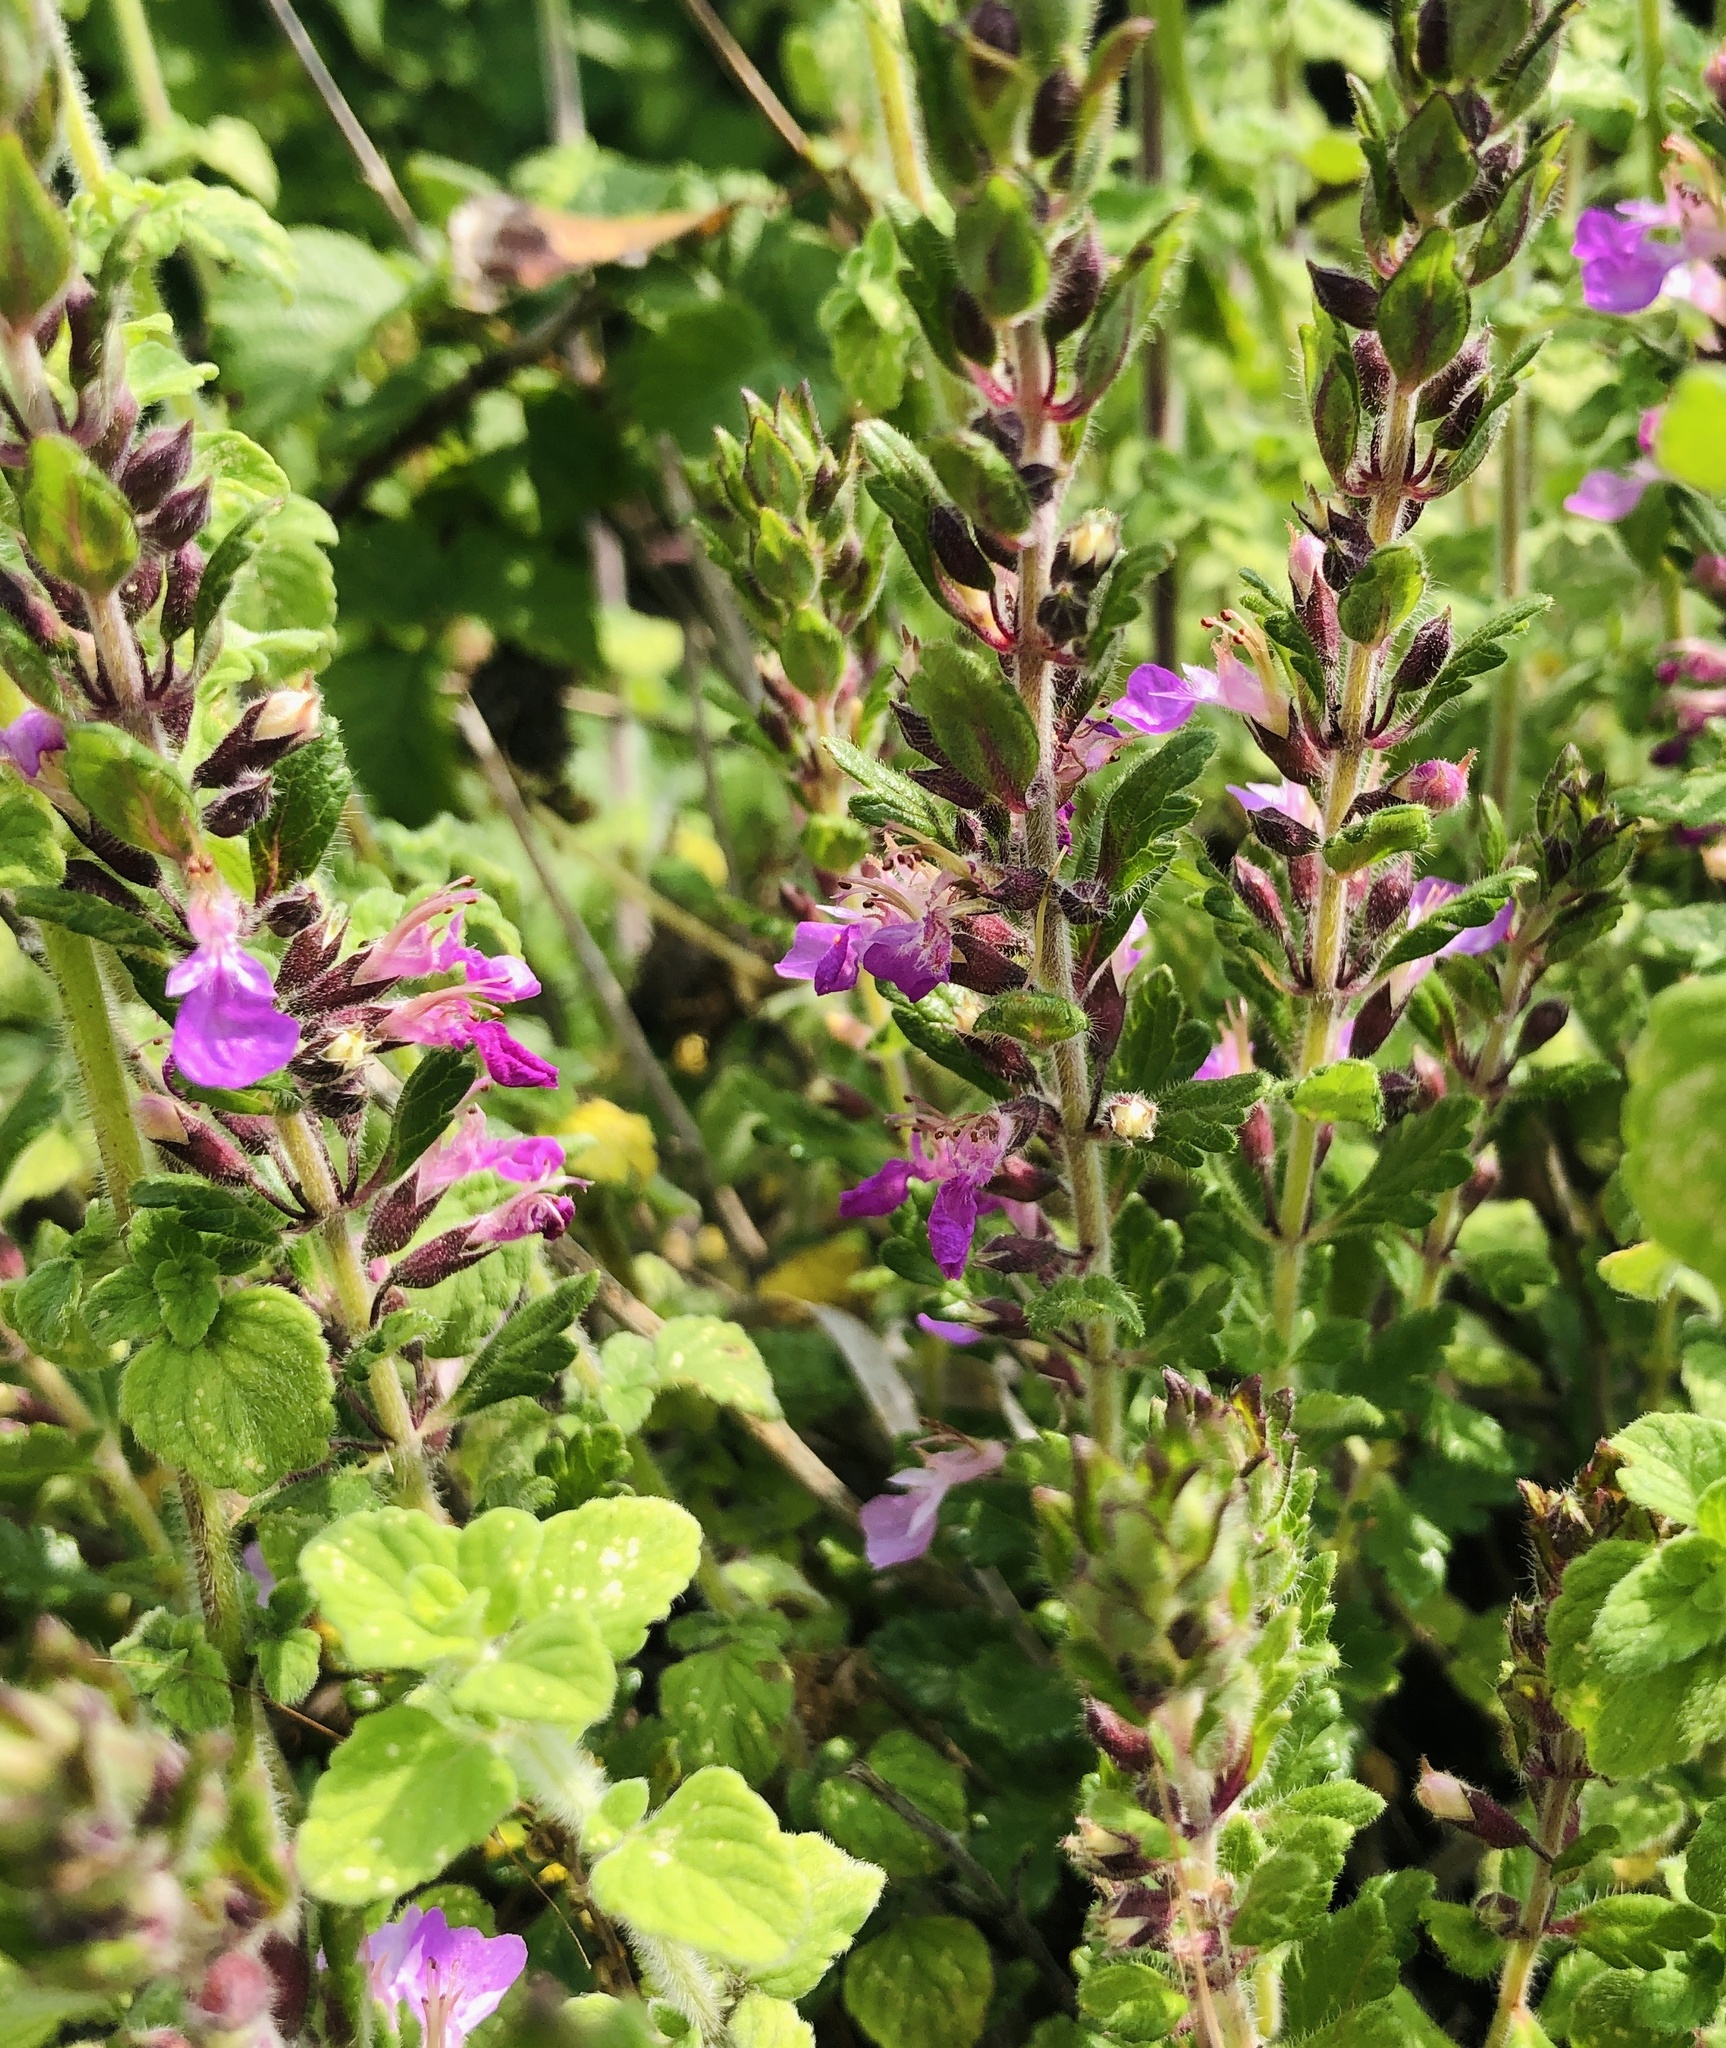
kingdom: Plantae
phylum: Tracheophyta
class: Magnoliopsida
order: Lamiales
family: Lamiaceae
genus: Teucrium
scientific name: Teucrium chamaedrys
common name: Wall germander
